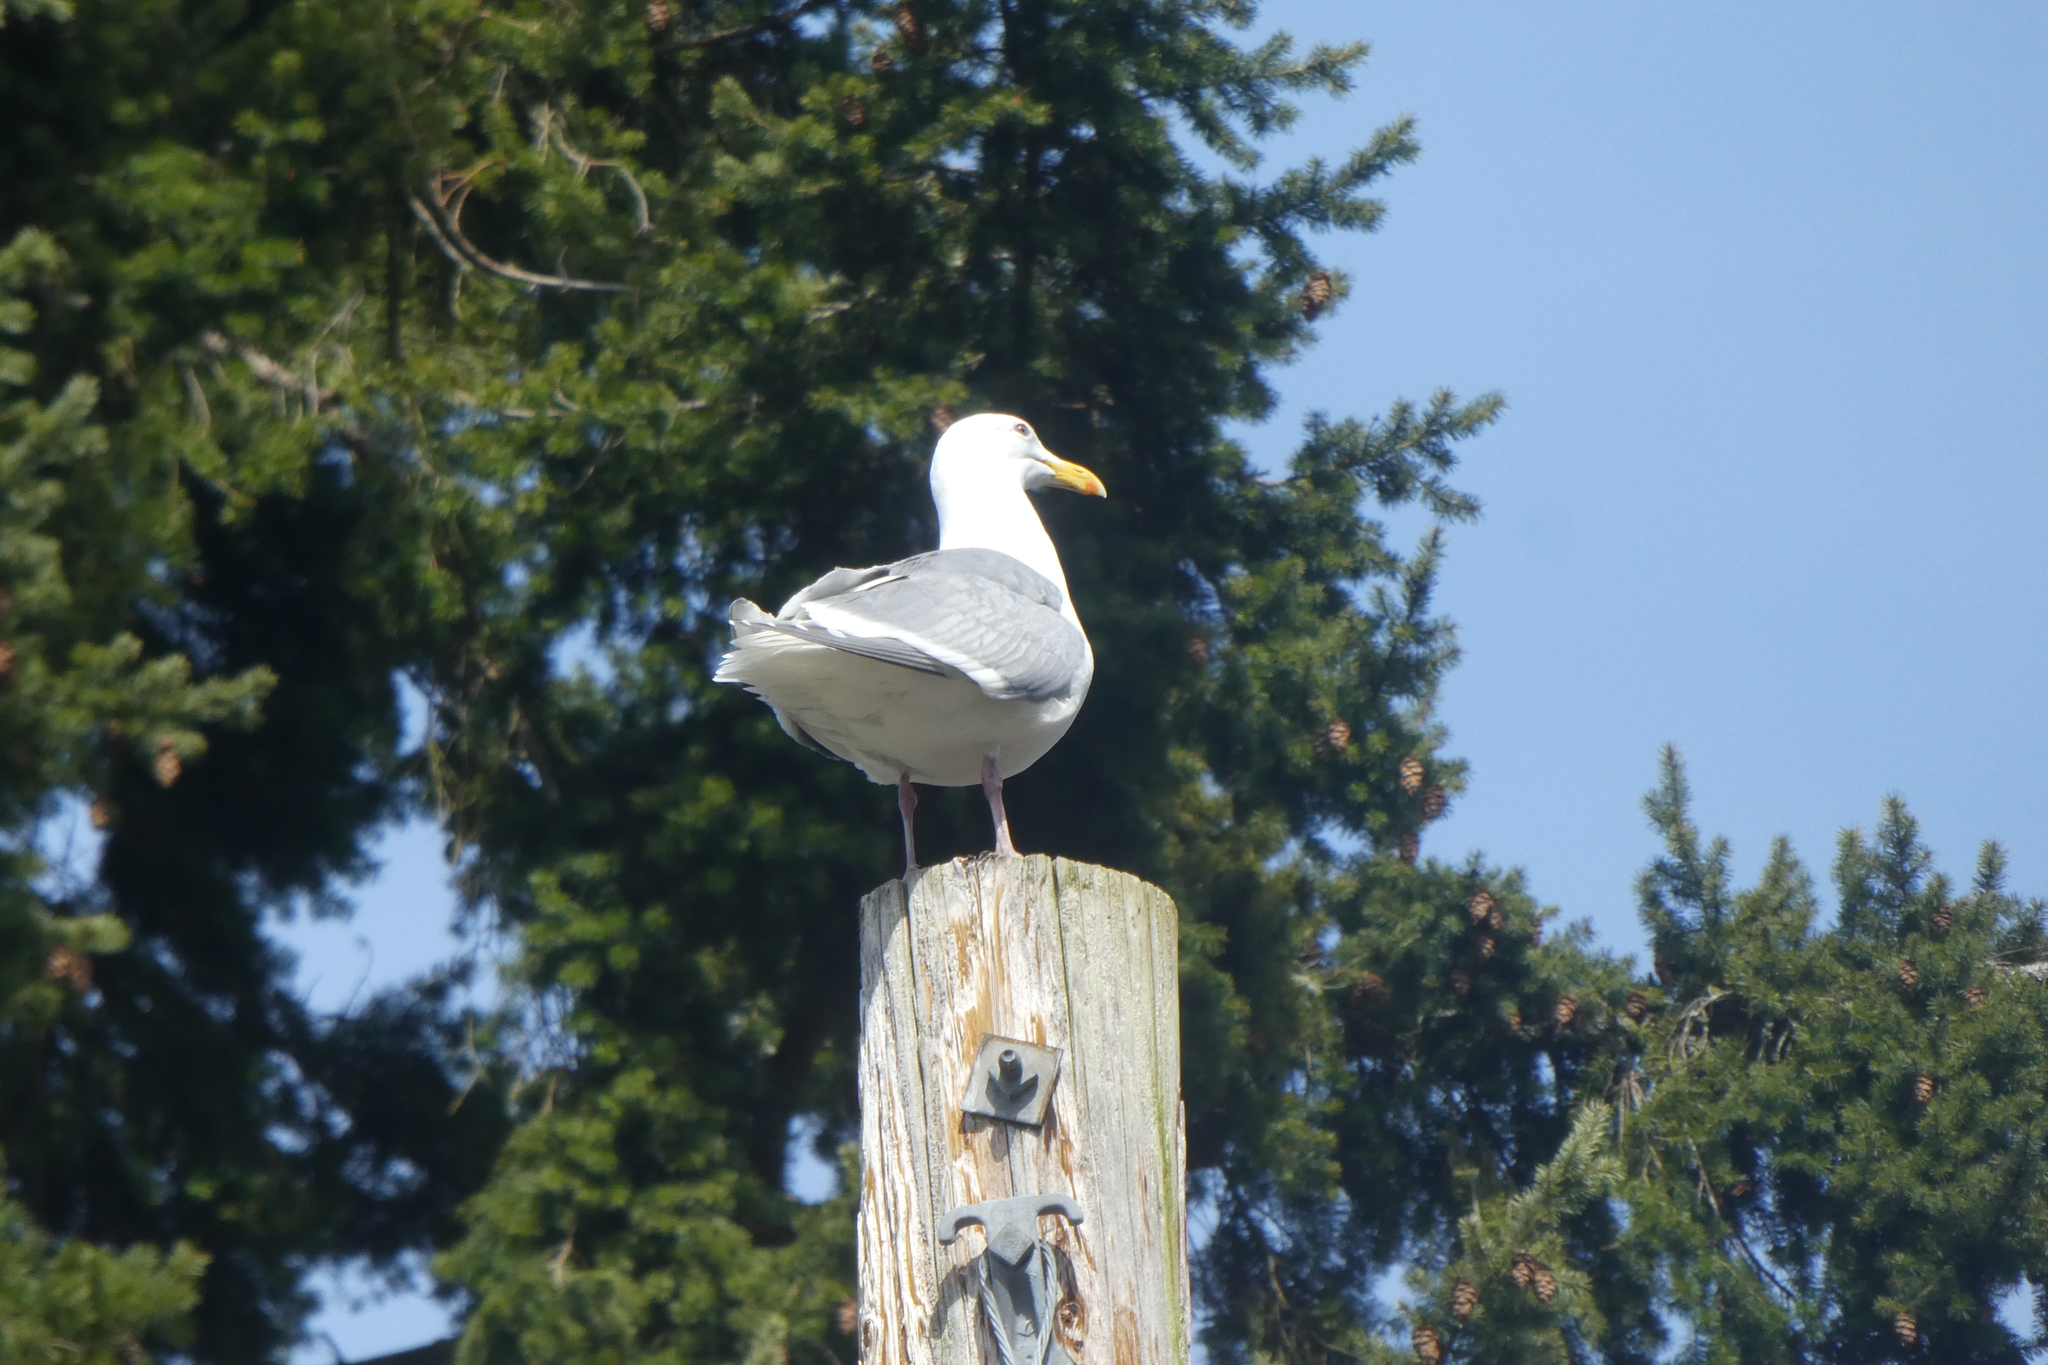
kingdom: Animalia
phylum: Chordata
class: Aves
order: Charadriiformes
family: Laridae
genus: Larus
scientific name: Larus glaucescens
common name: Glaucous-winged gull
